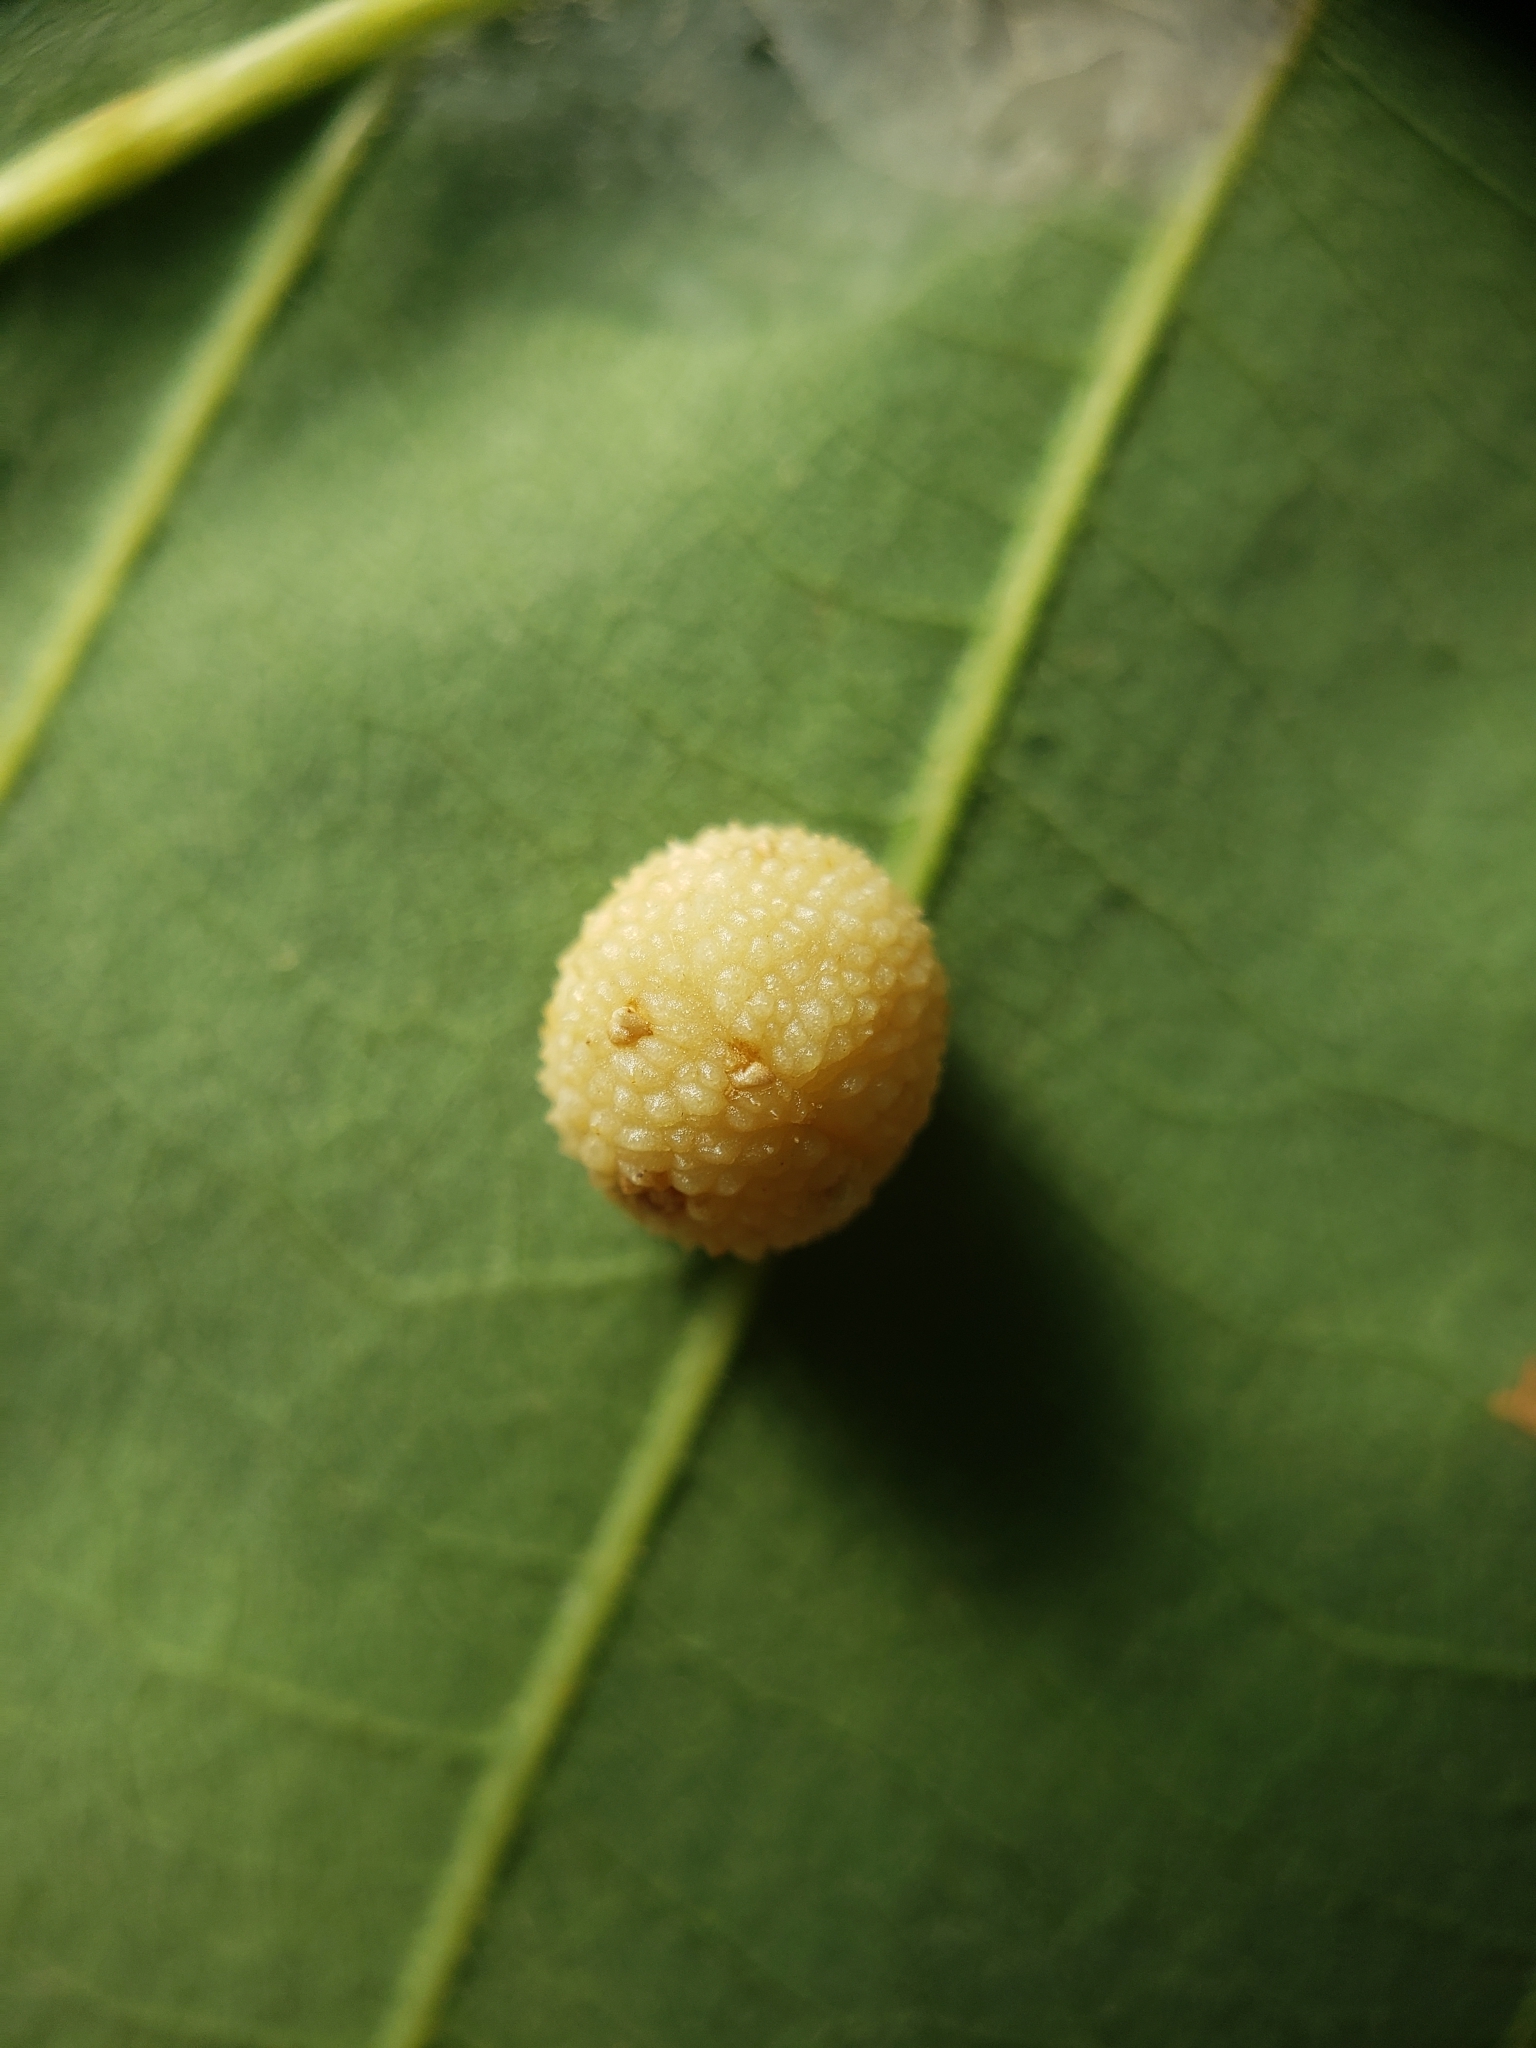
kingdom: Animalia
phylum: Arthropoda
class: Insecta
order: Hymenoptera
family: Cynipidae
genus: Acraspis
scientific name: Acraspis quercushirta
